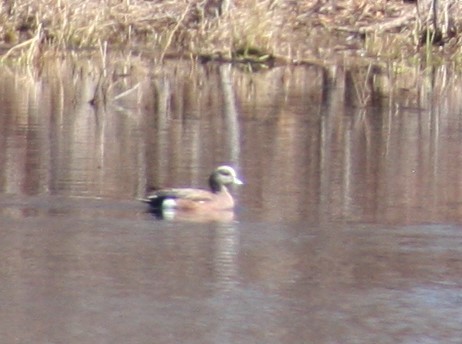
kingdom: Animalia
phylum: Chordata
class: Aves
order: Anseriformes
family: Anatidae
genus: Mareca
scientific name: Mareca americana
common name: American wigeon
